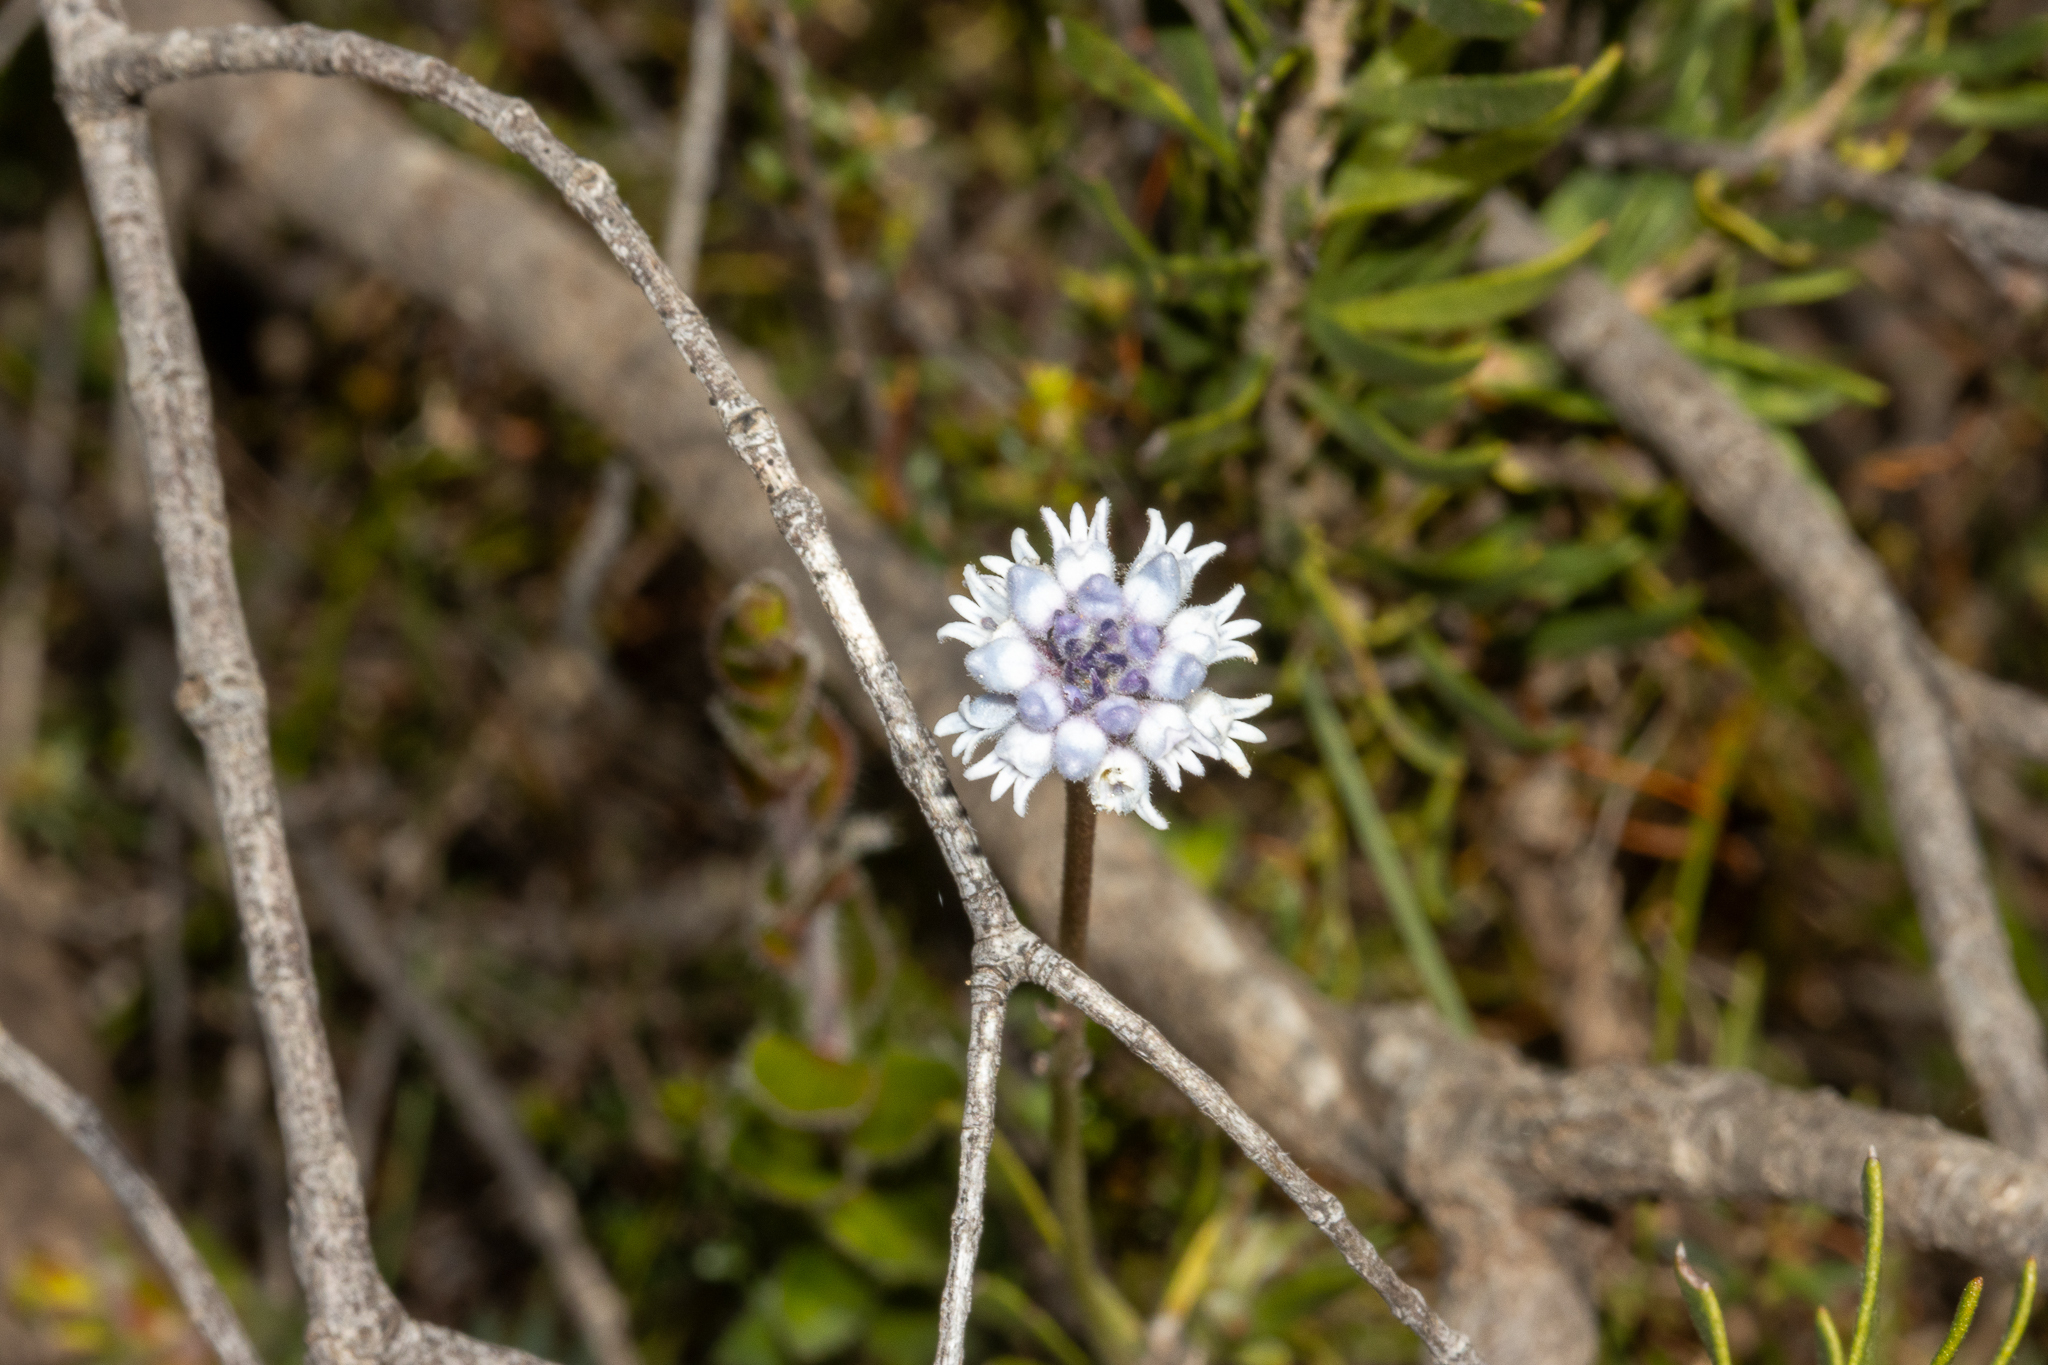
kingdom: Plantae
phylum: Tracheophyta
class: Magnoliopsida
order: Proteales
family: Proteaceae
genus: Conospermum
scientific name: Conospermum patens
